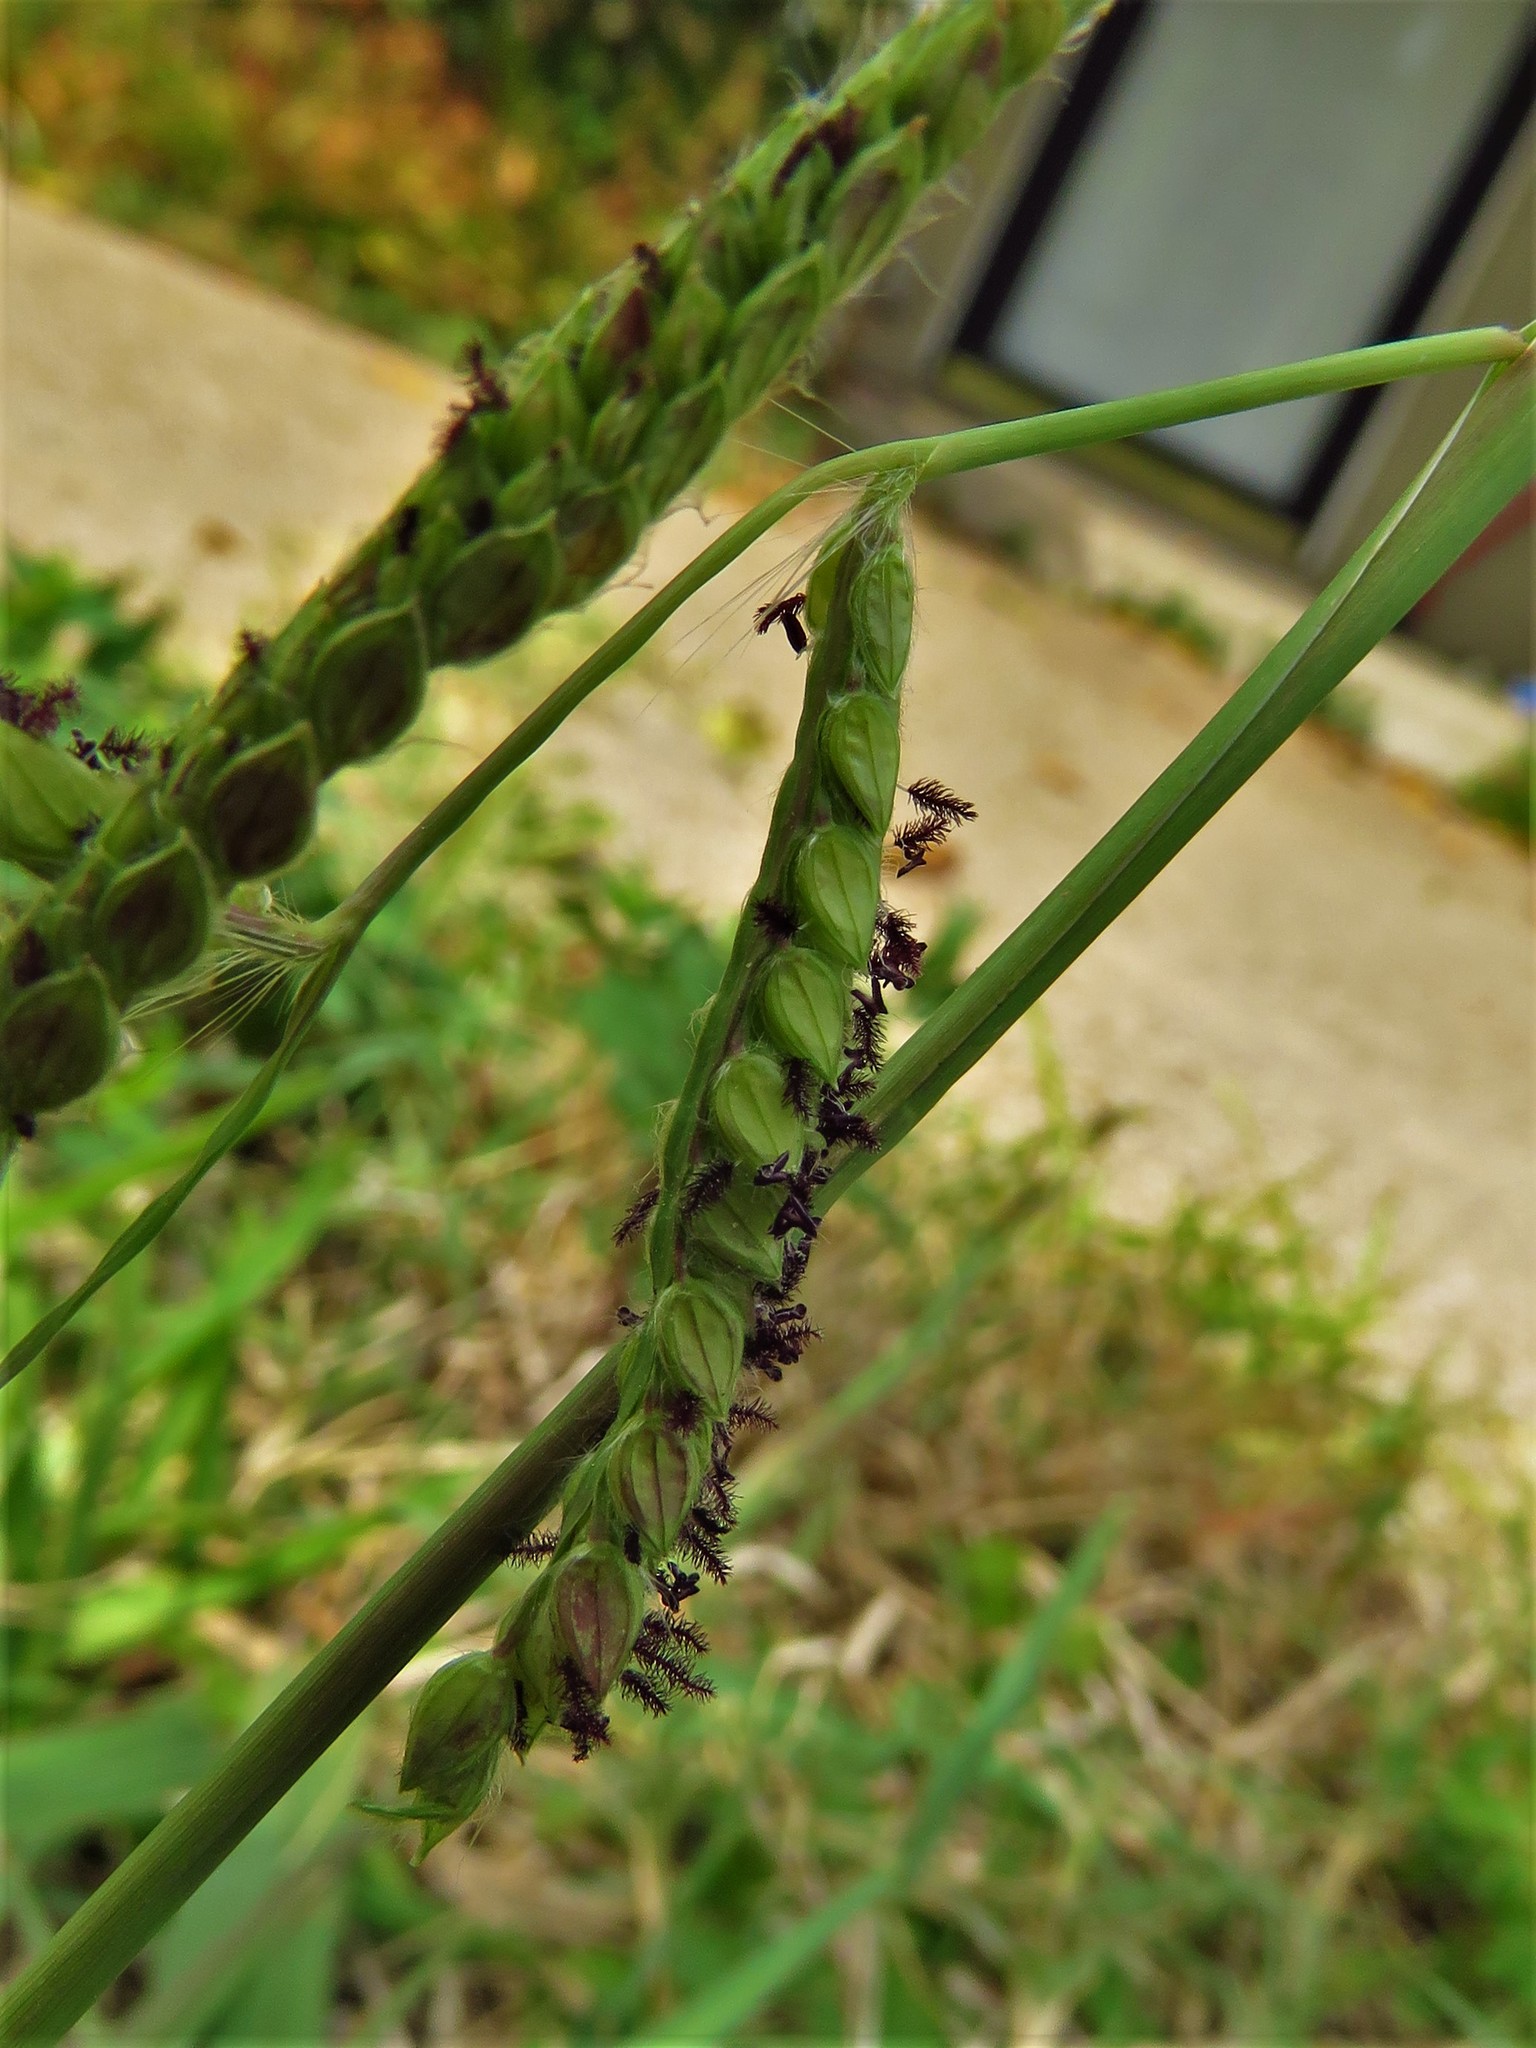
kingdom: Plantae
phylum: Tracheophyta
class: Liliopsida
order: Poales
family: Poaceae
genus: Paspalum
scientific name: Paspalum dilatatum
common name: Dallisgrass
